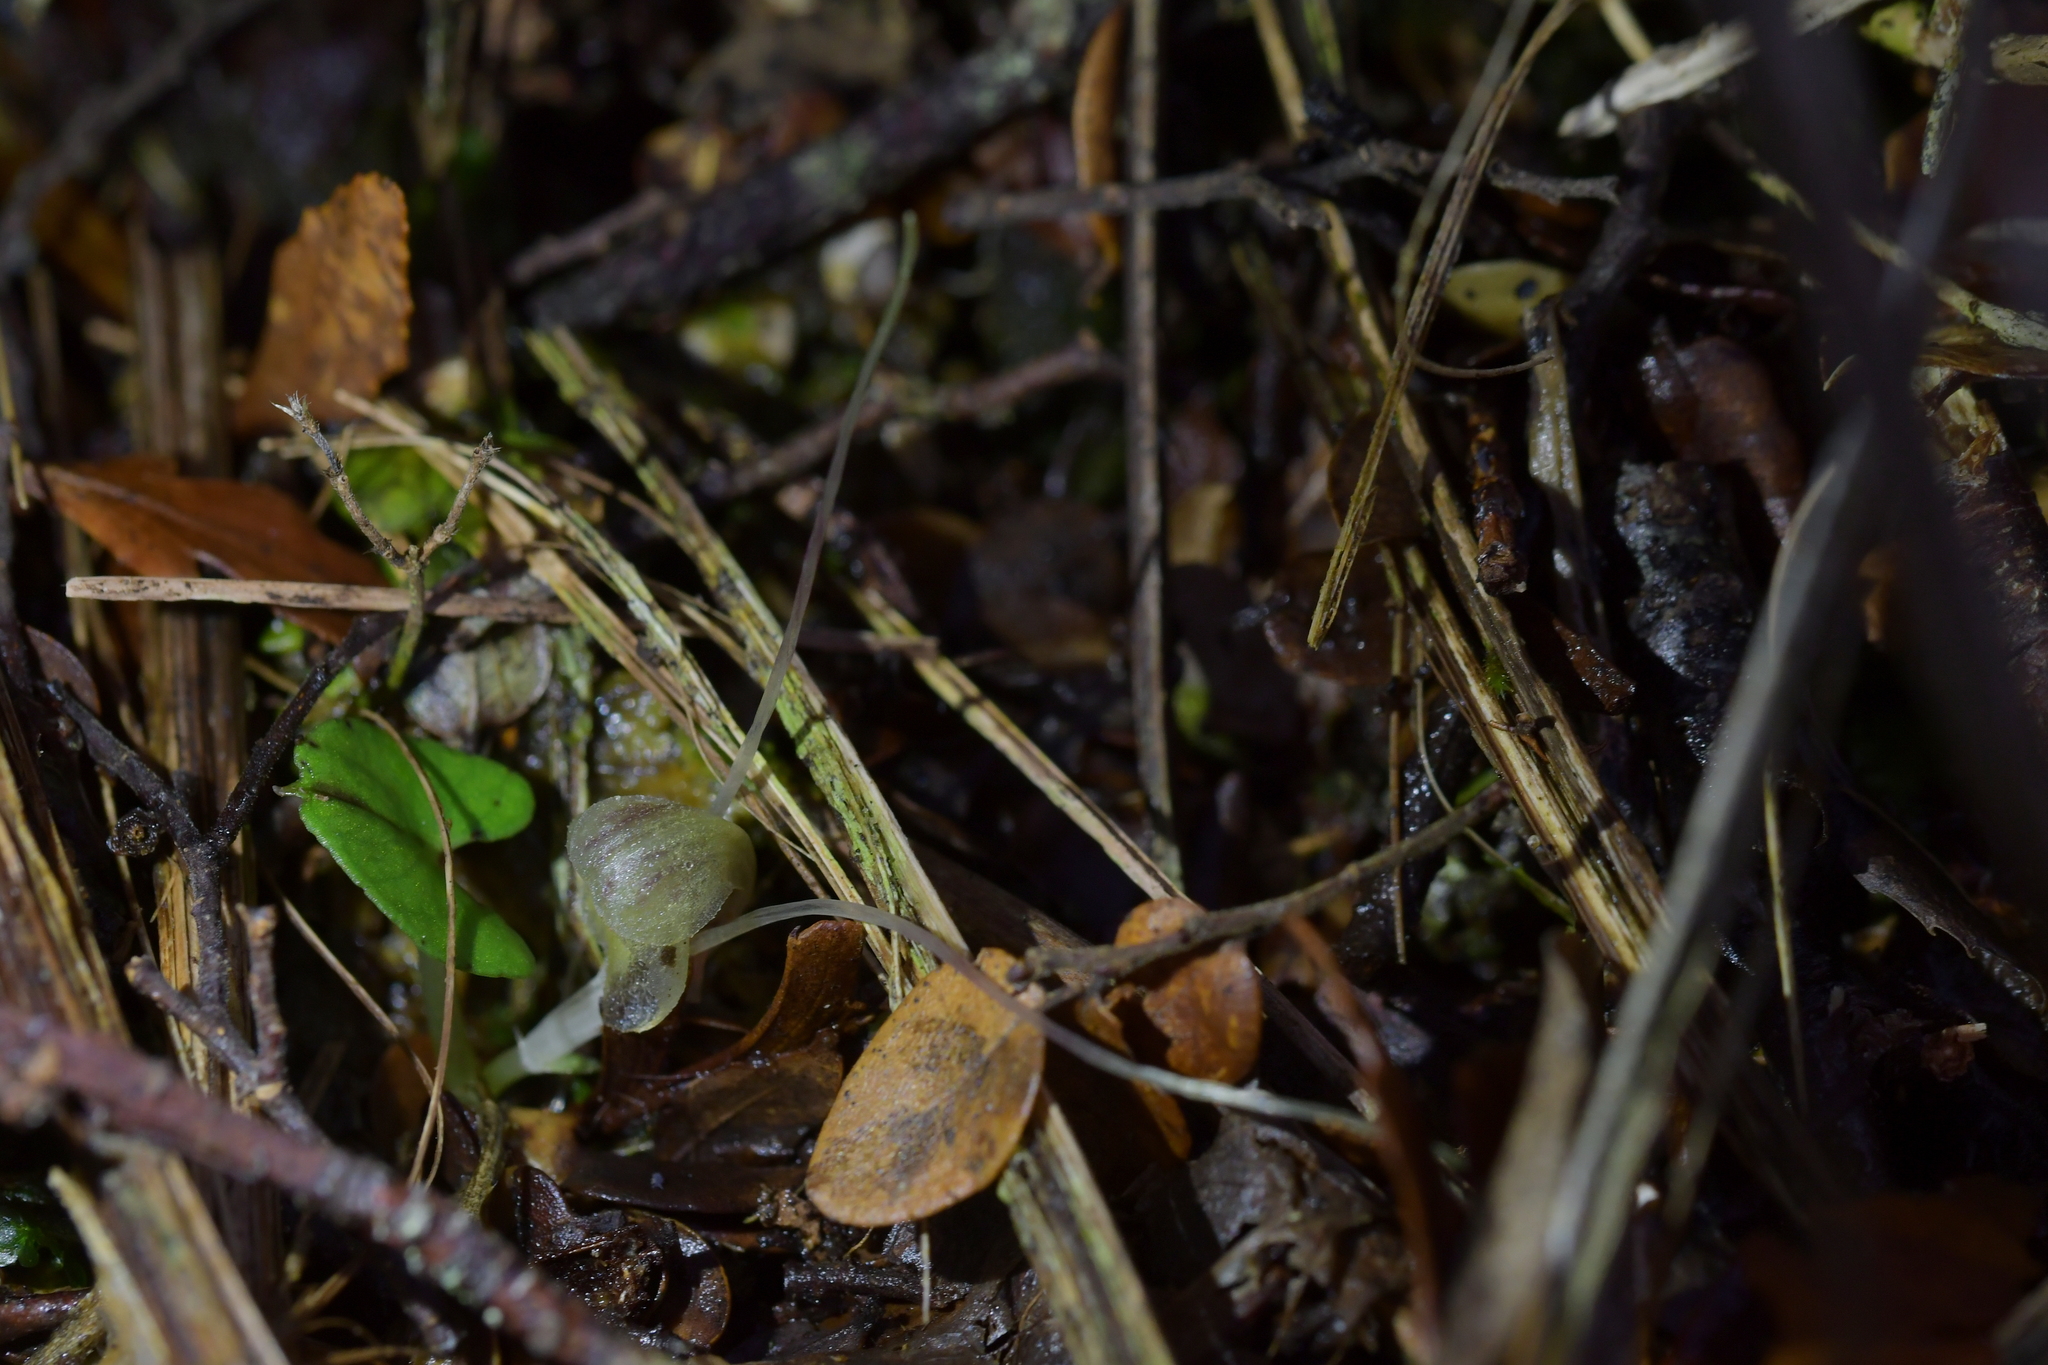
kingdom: Plantae
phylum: Tracheophyta
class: Liliopsida
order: Asparagales
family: Orchidaceae
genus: Corybas
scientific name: Corybas walliae
